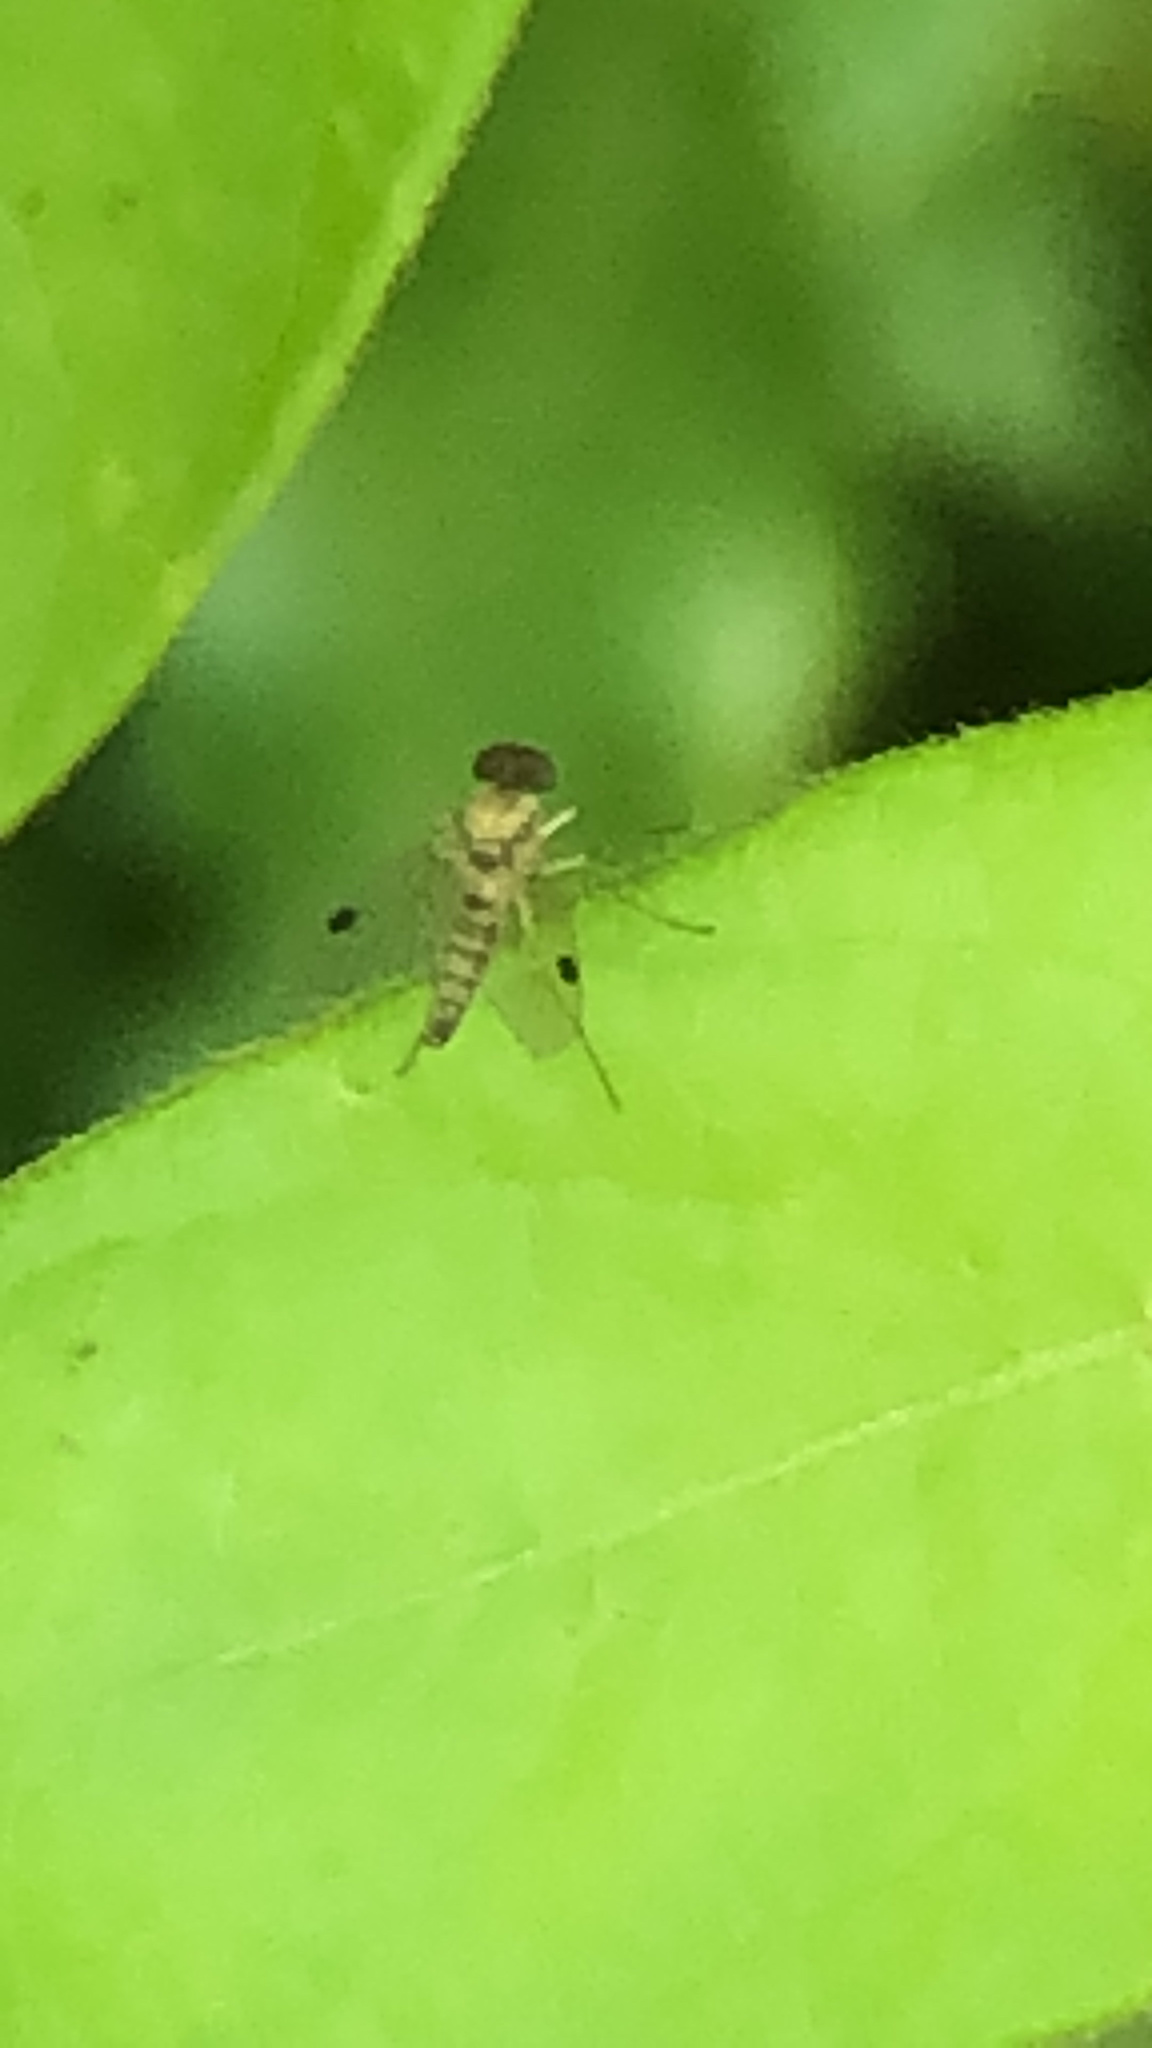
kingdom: Animalia
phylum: Arthropoda
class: Insecta
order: Diptera
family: Rhagionidae
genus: Chrysopilus
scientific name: Chrysopilus modestus
